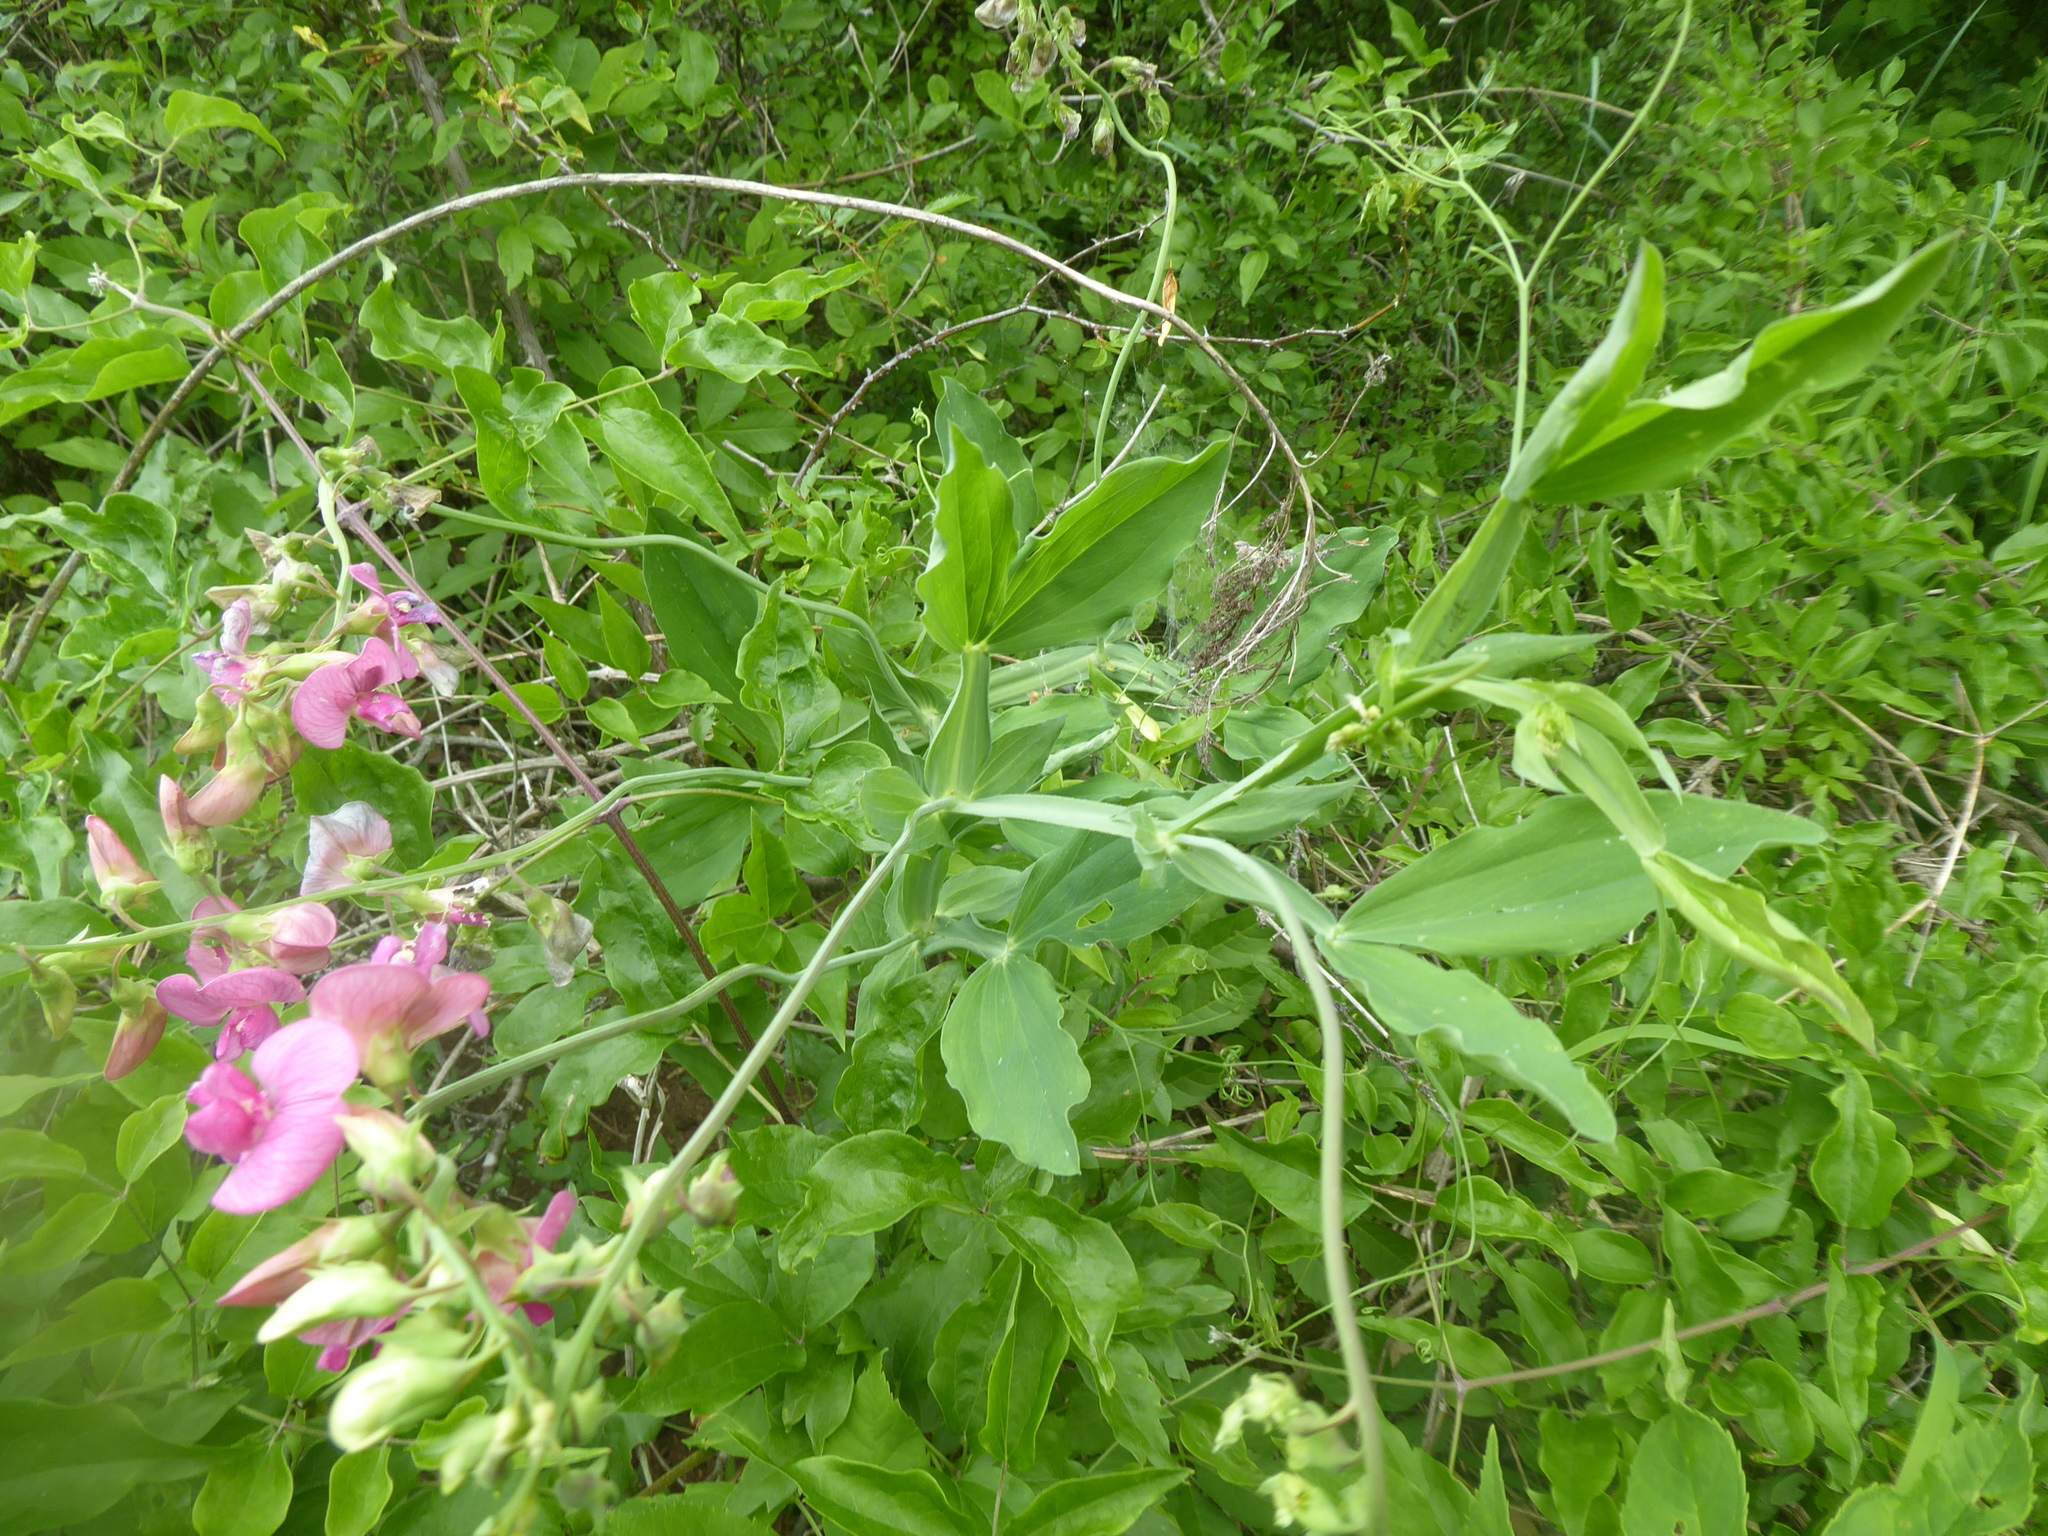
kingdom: Plantae
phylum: Tracheophyta
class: Magnoliopsida
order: Fabales
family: Fabaceae
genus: Lathyrus
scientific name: Lathyrus latifolius
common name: Perennial pea
